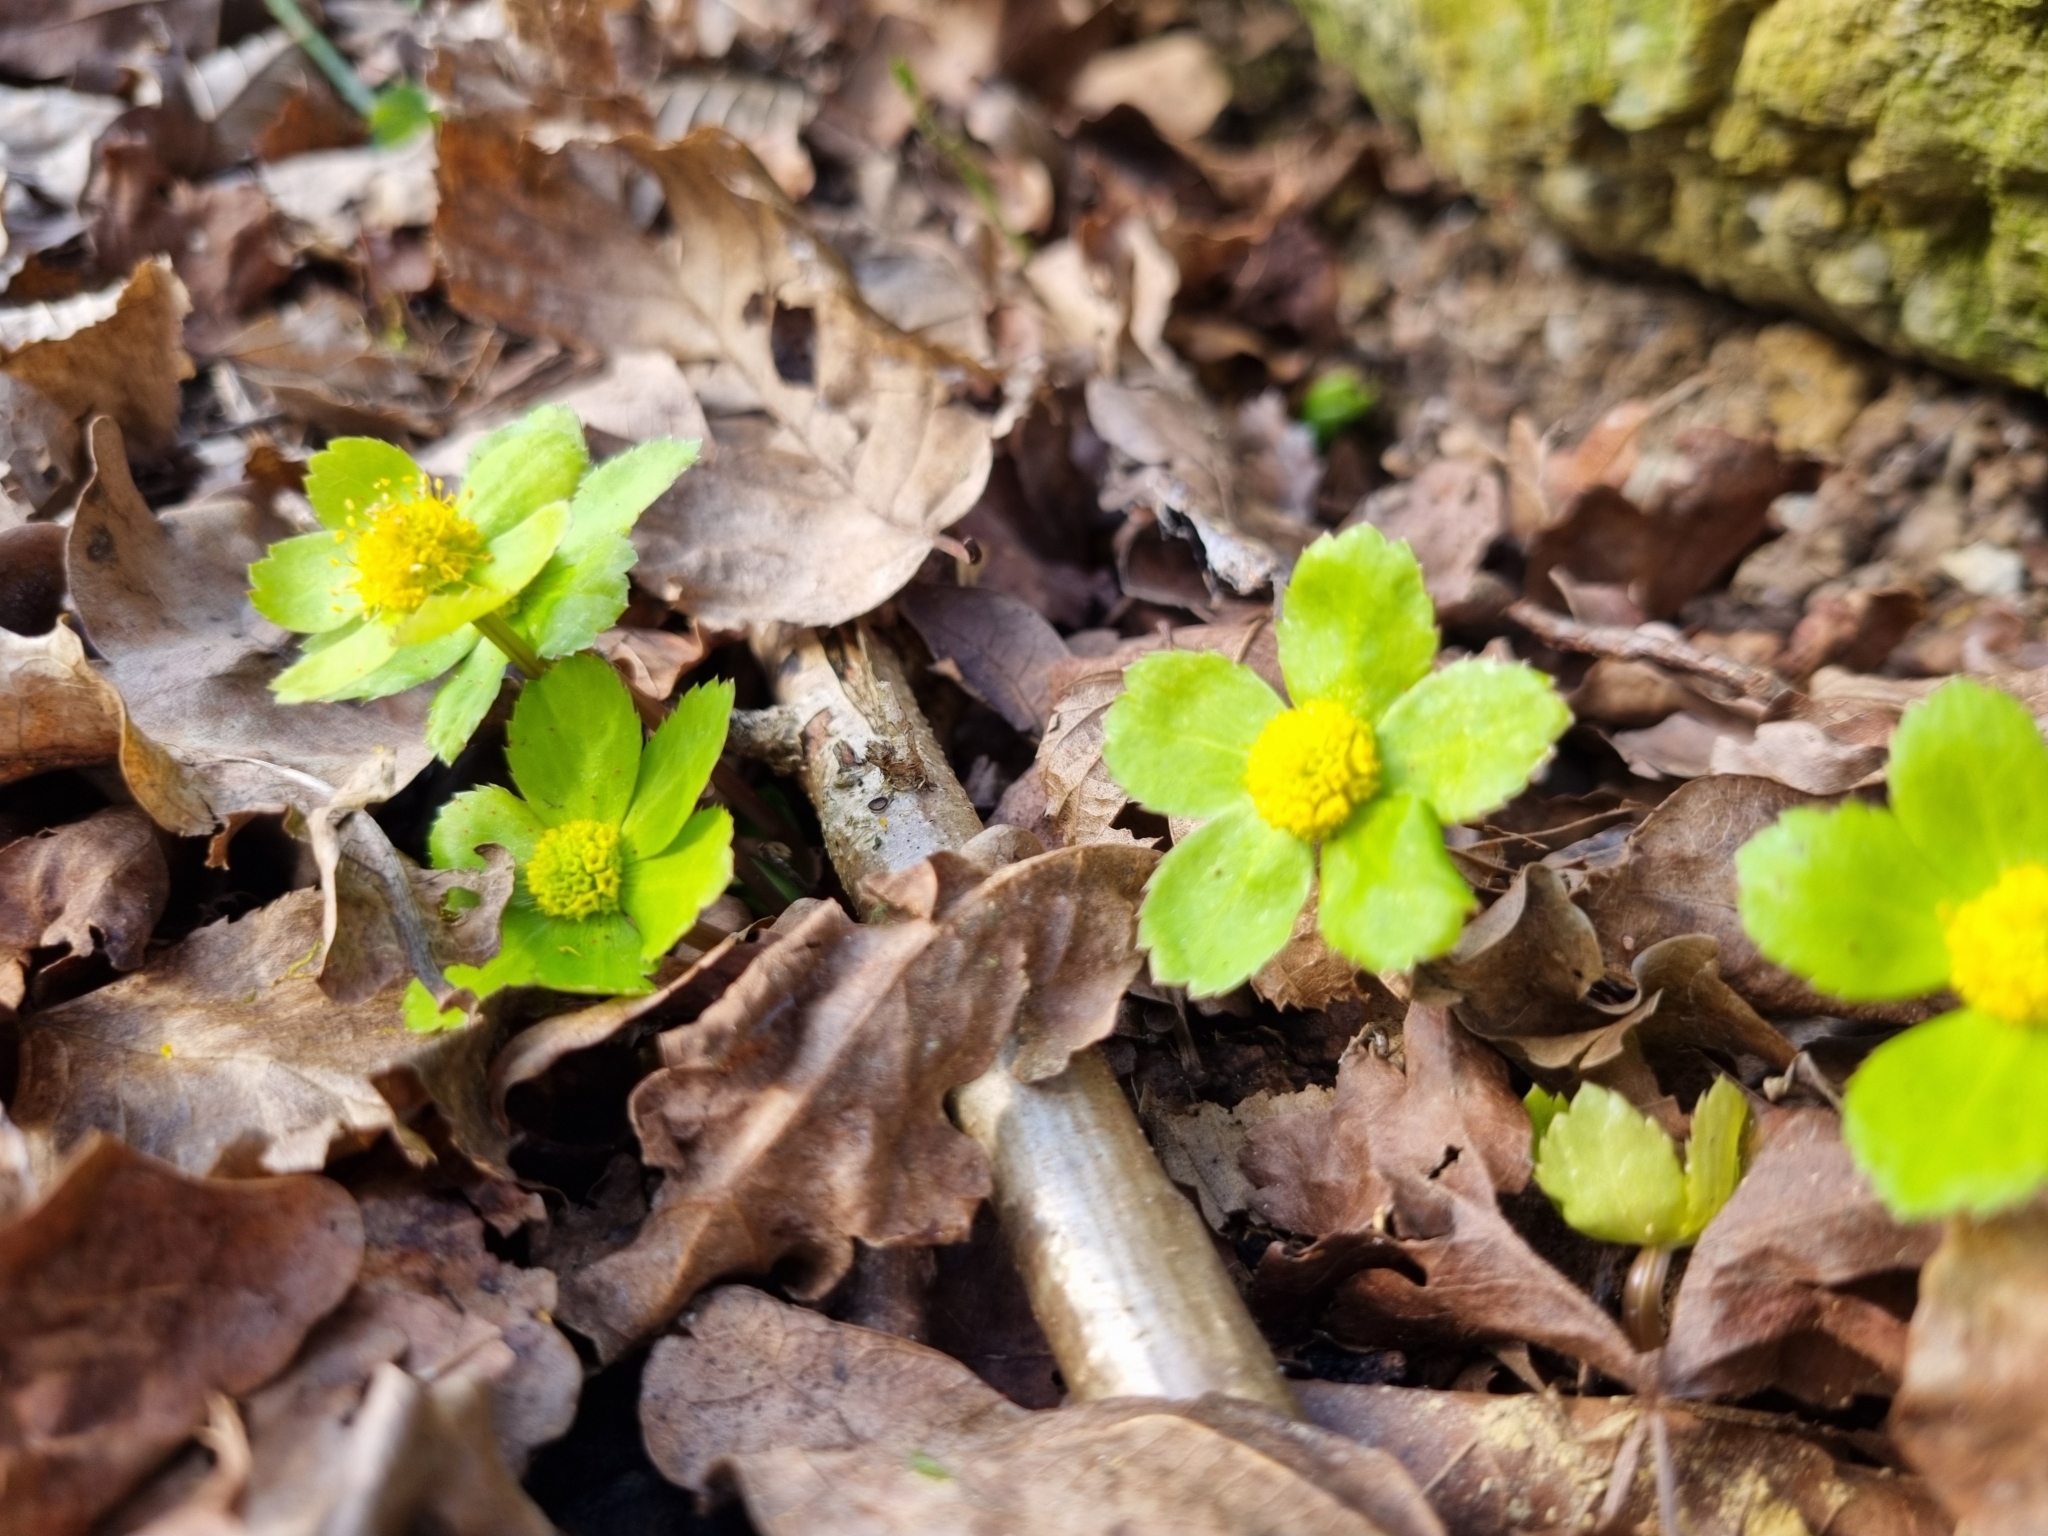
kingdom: Plantae
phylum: Tracheophyta
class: Magnoliopsida
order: Apiales
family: Apiaceae
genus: Sanicula
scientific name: Sanicula epipactis
